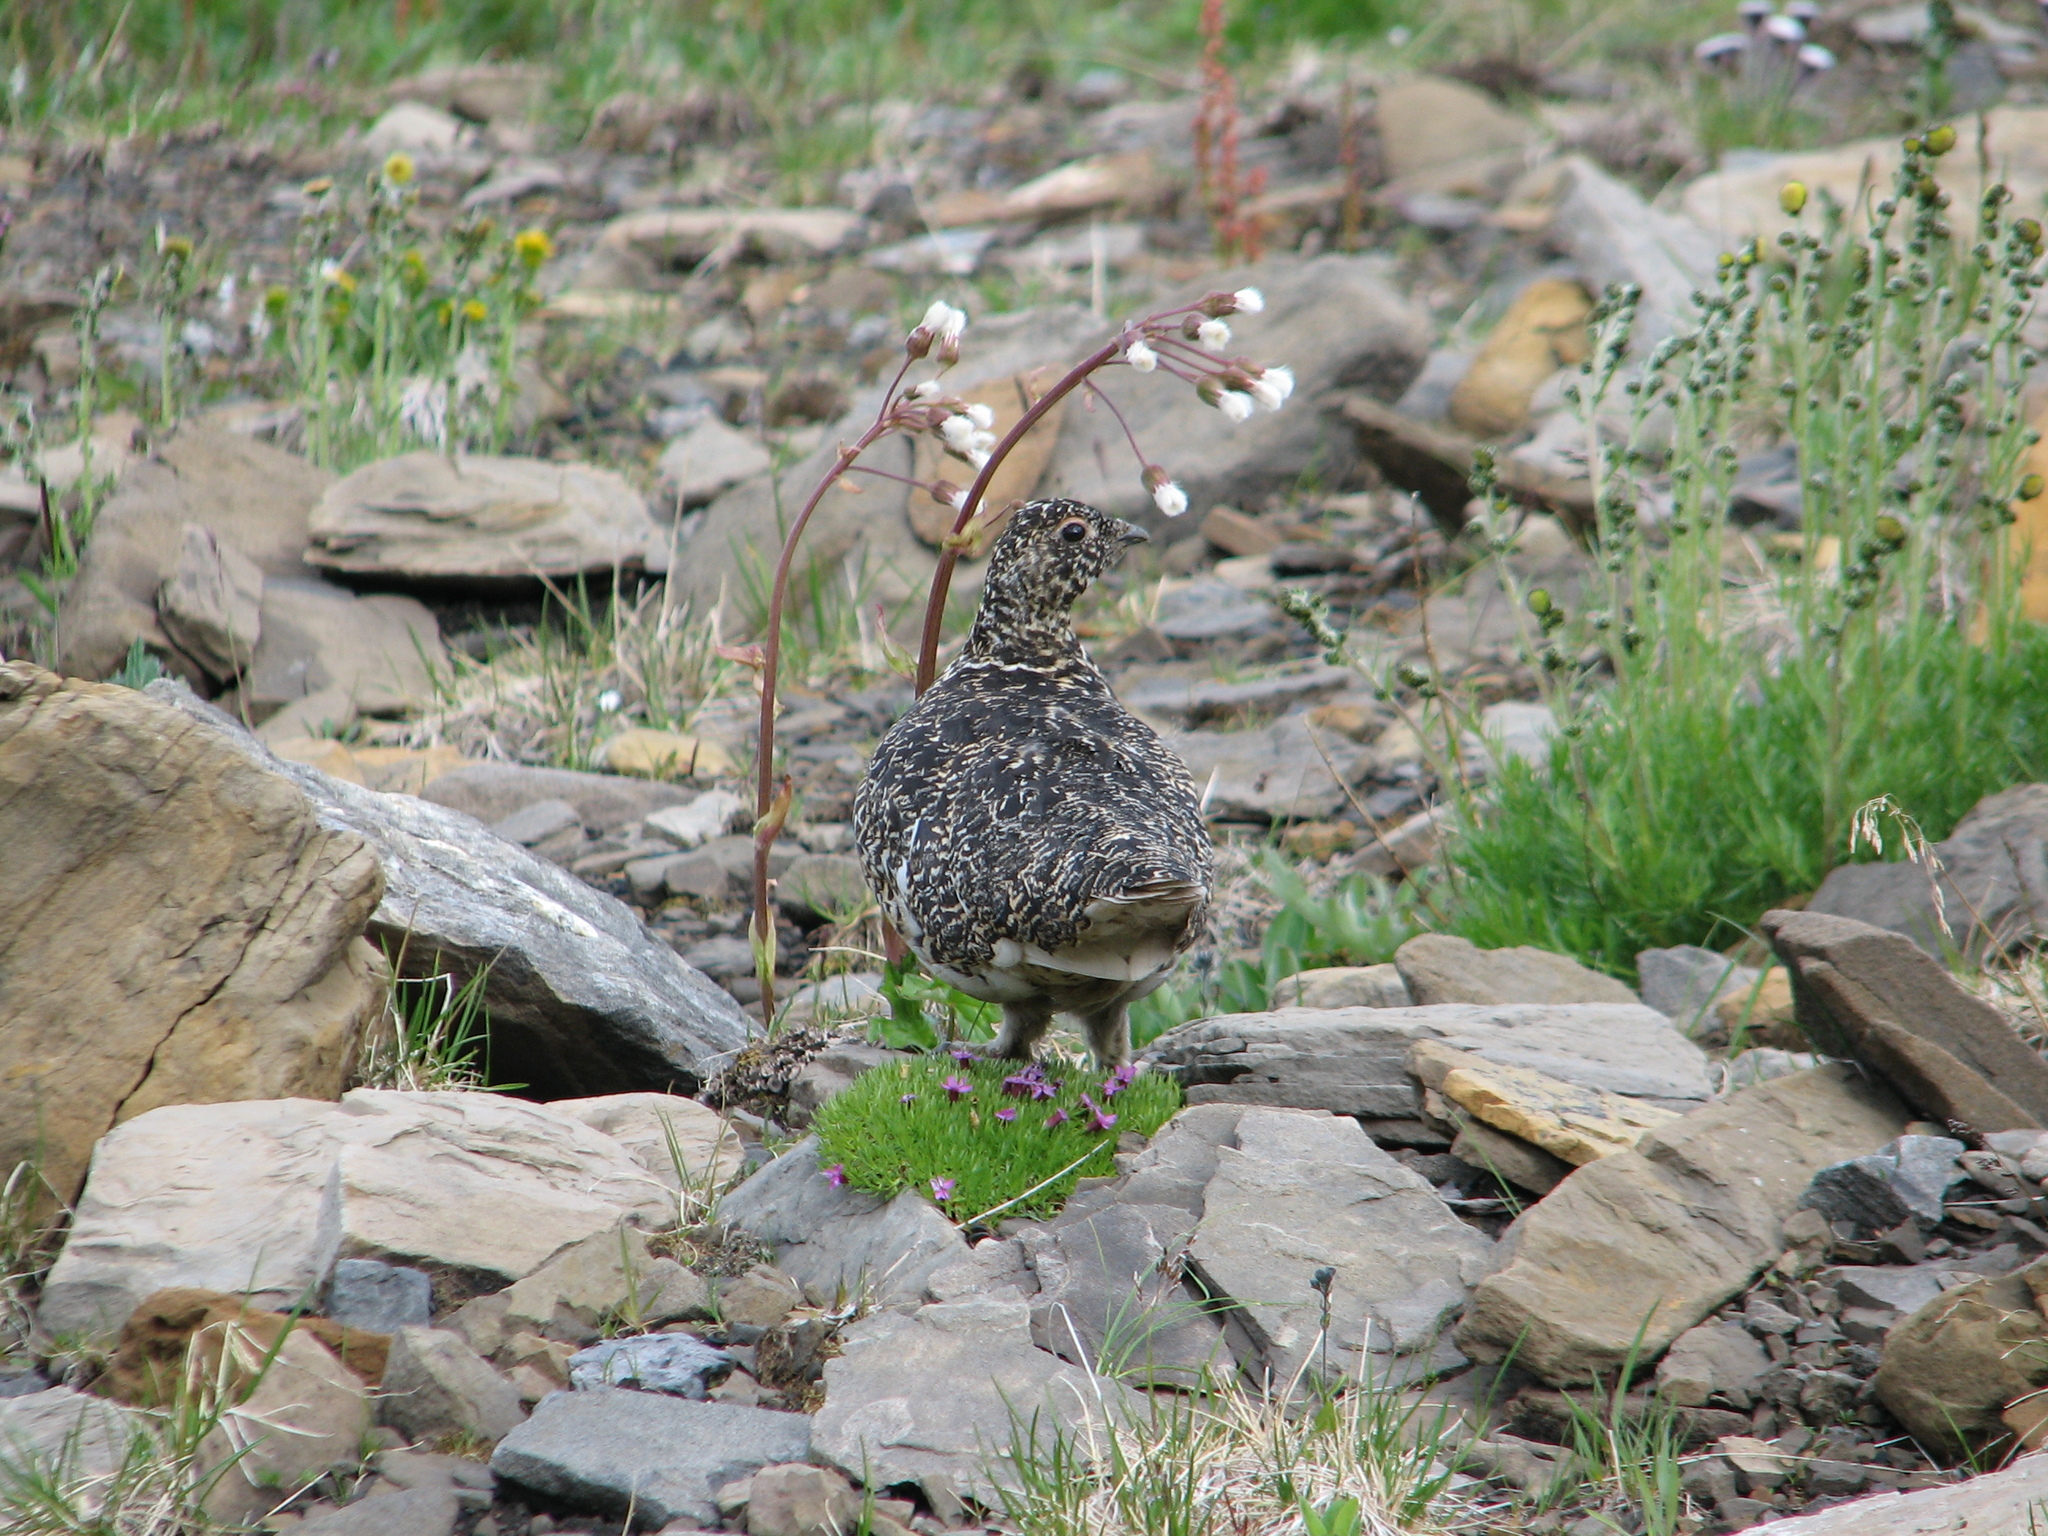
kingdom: Animalia
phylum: Chordata
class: Aves
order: Galliformes
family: Phasianidae
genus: Lagopus
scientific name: Lagopus leucura
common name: White-tailed ptarmigan
